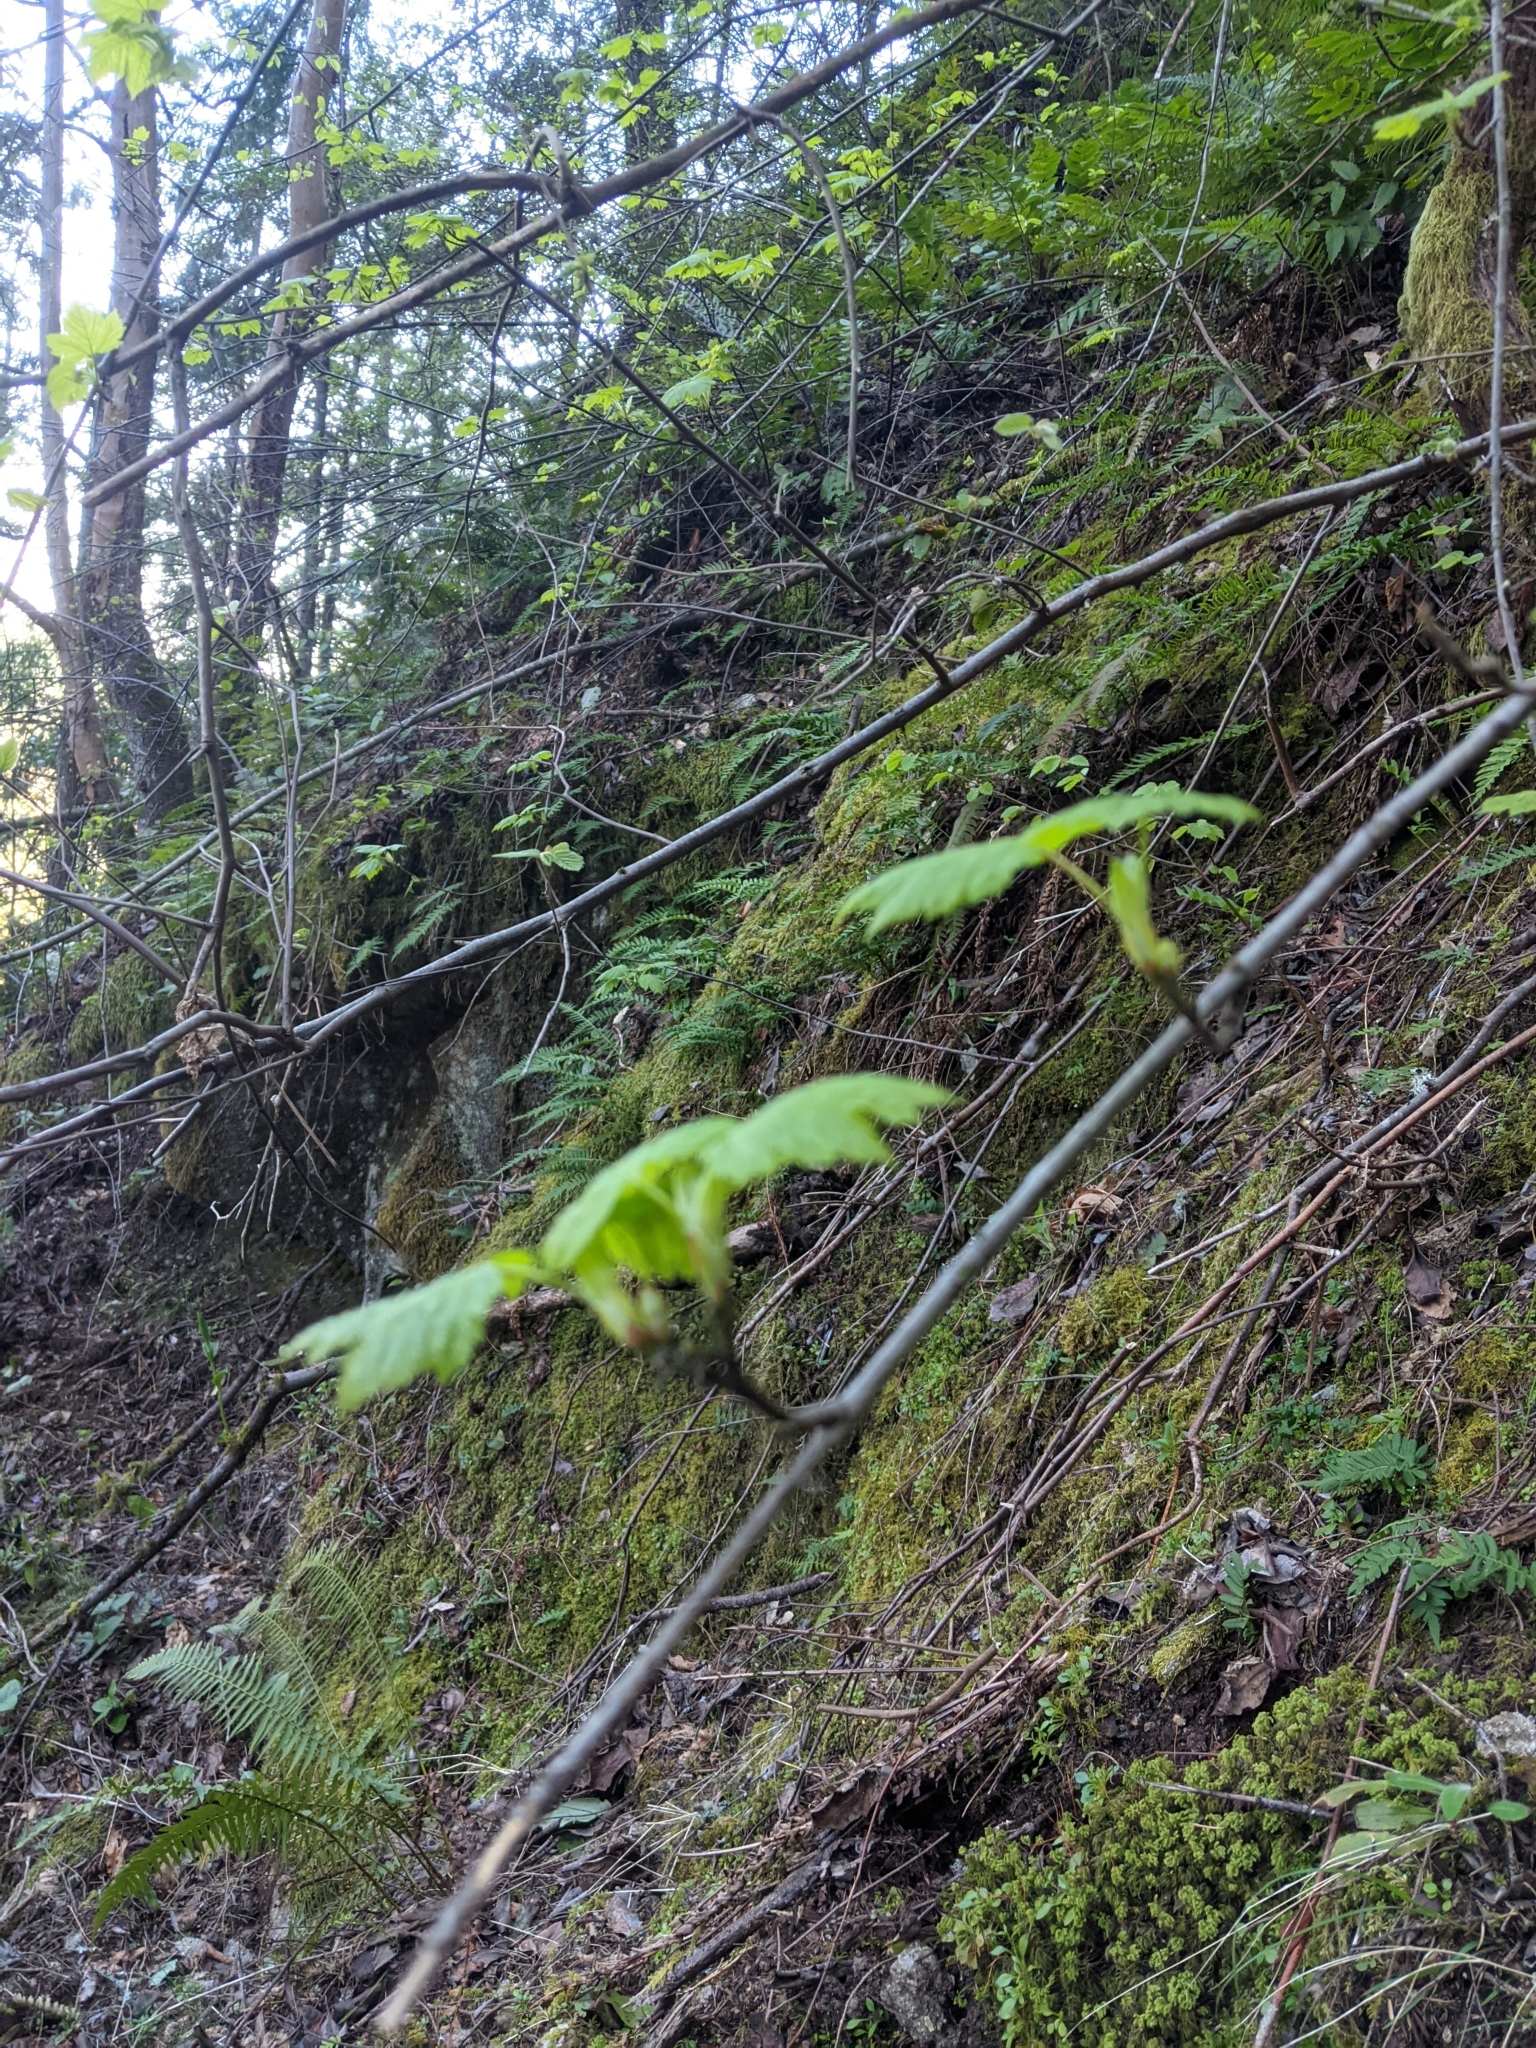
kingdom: Plantae
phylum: Tracheophyta
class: Magnoliopsida
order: Sapindales
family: Sapindaceae
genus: Acer
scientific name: Acer glabrum
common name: Rocky mountain maple
